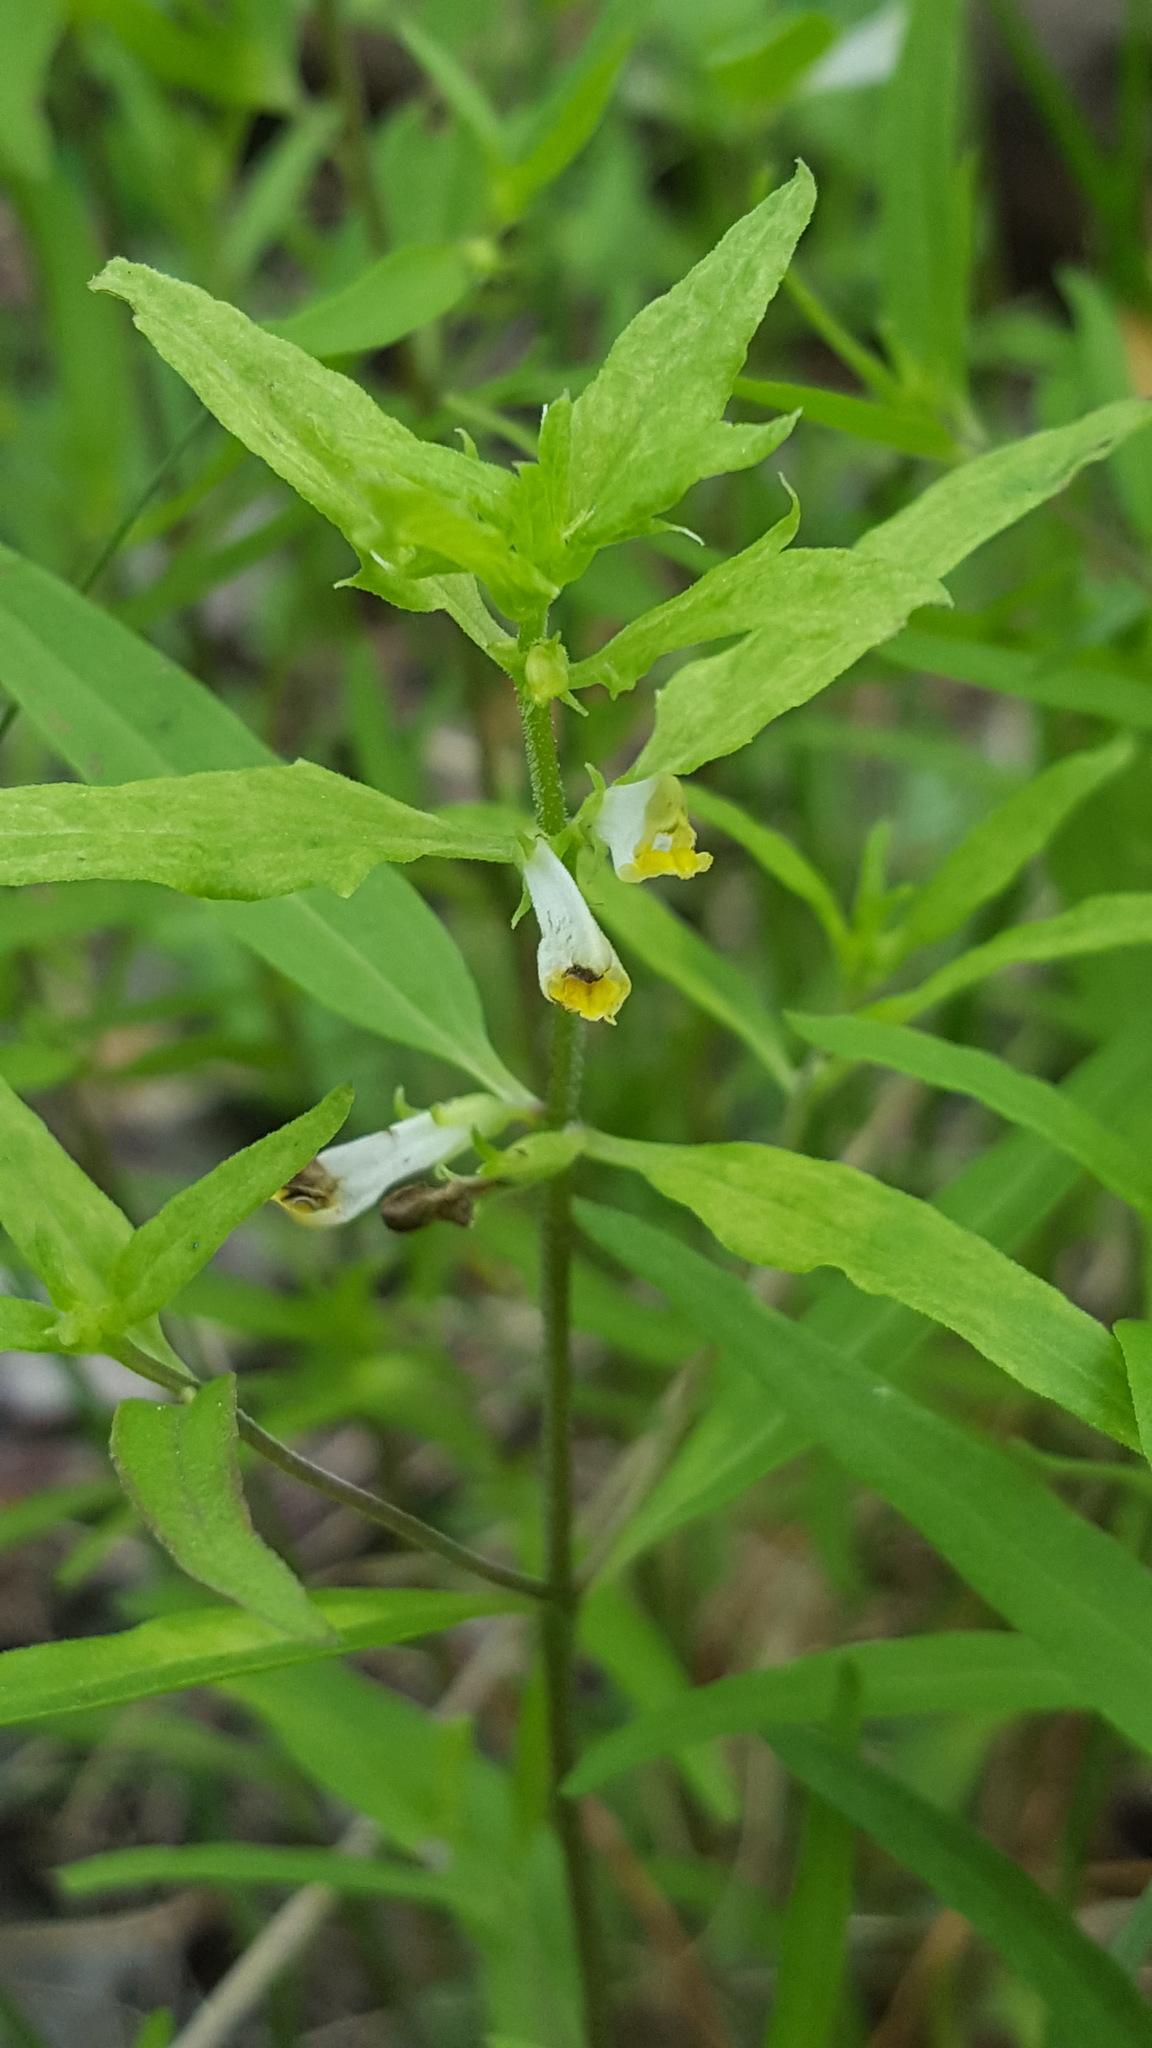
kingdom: Plantae
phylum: Tracheophyta
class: Magnoliopsida
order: Lamiales
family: Orobanchaceae
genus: Melampyrum
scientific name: Melampyrum lineare
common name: American cow-wheat
